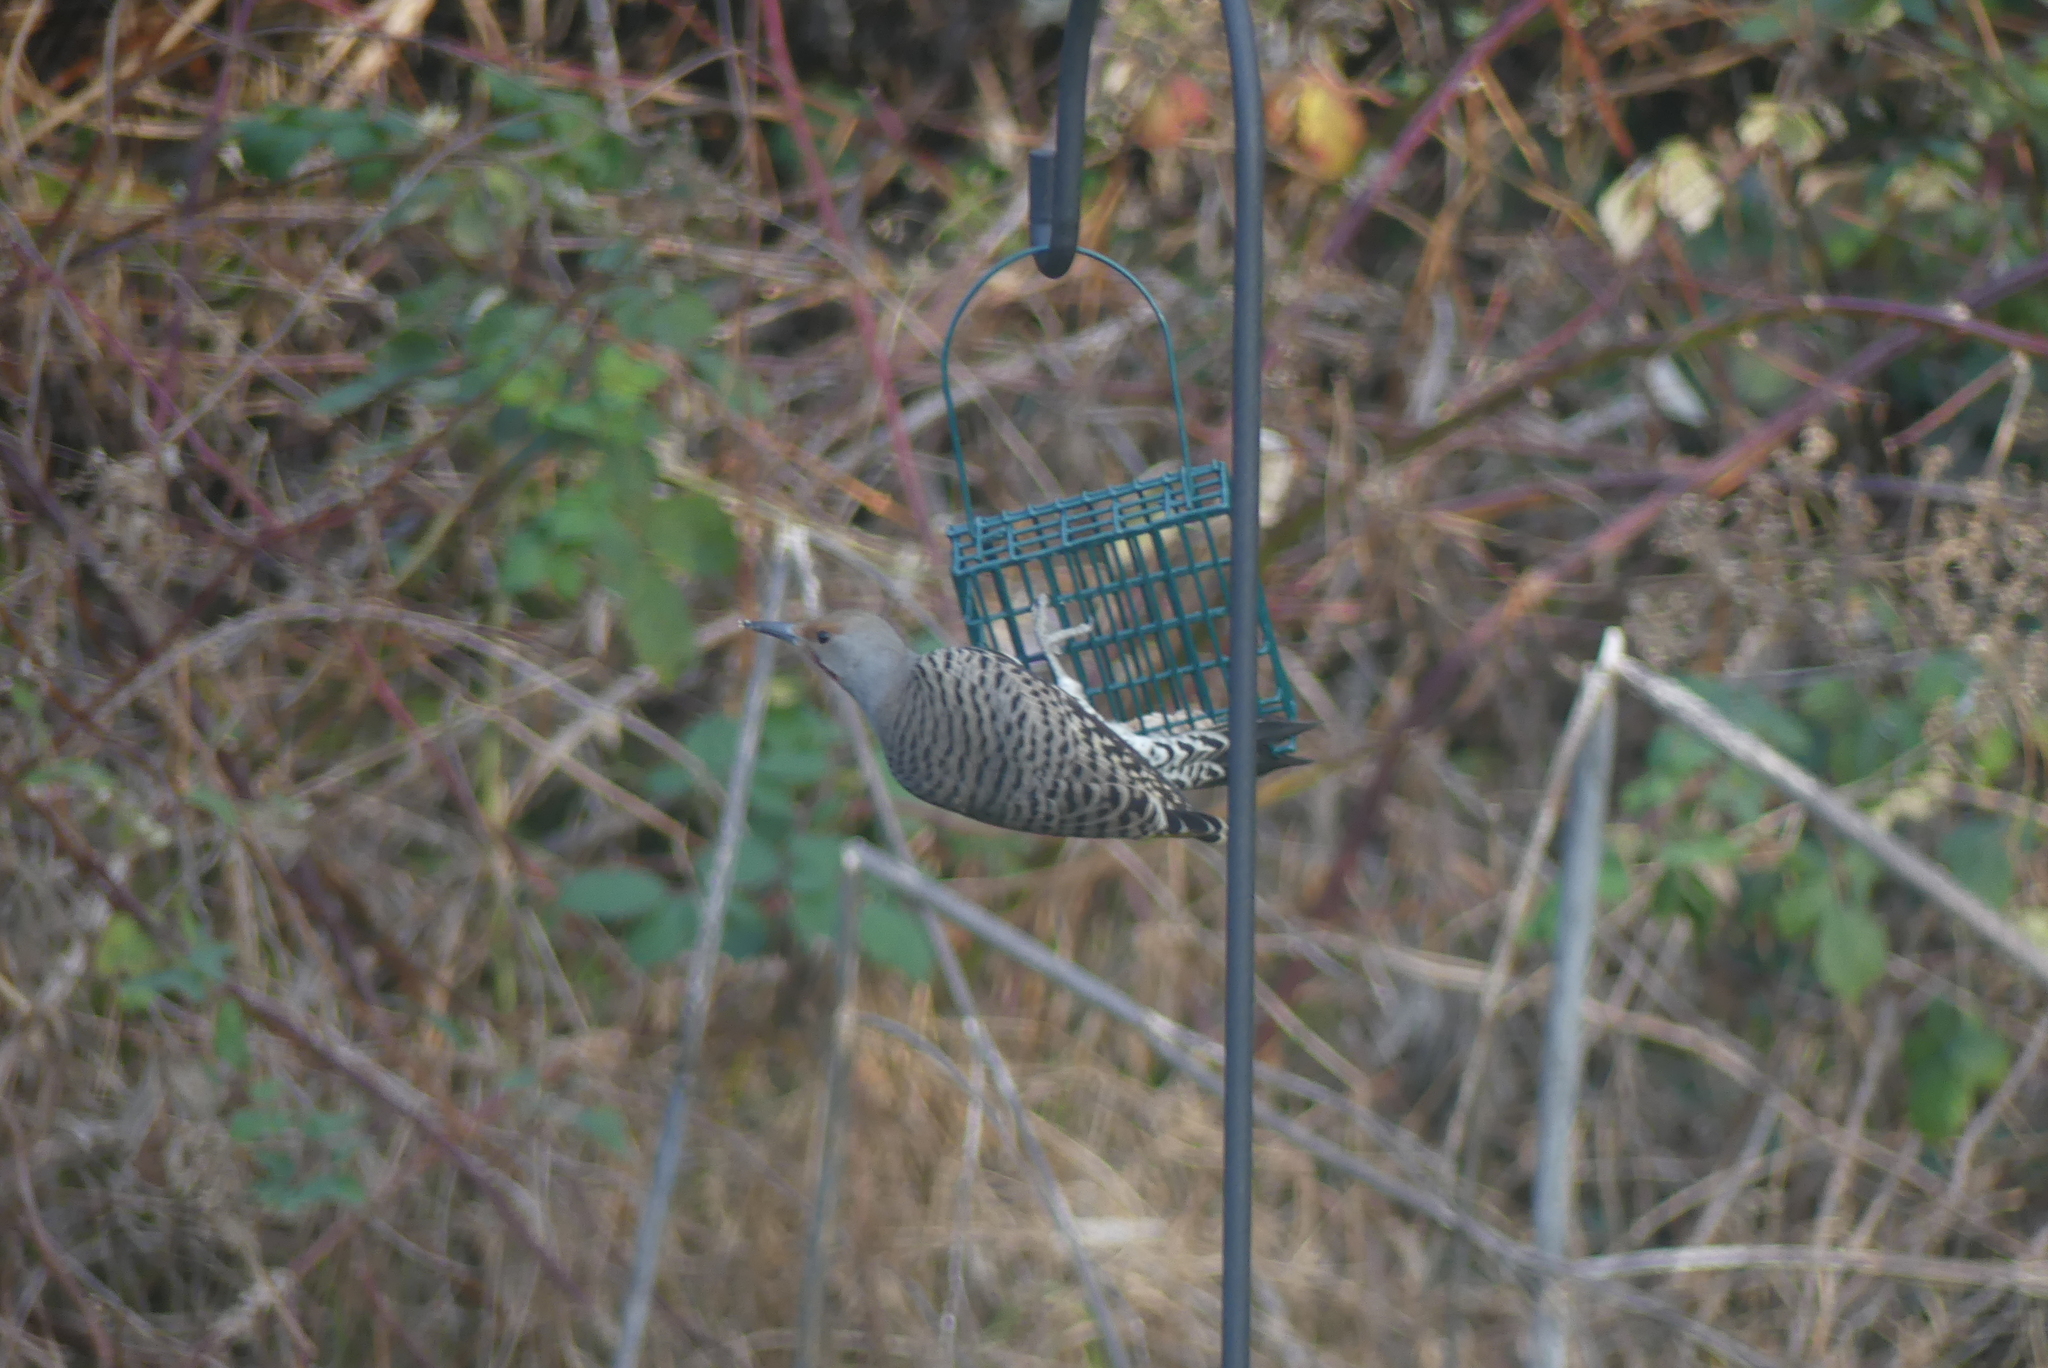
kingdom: Animalia
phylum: Chordata
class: Aves
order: Piciformes
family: Picidae
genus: Colaptes
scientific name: Colaptes auratus
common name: Northern flicker
